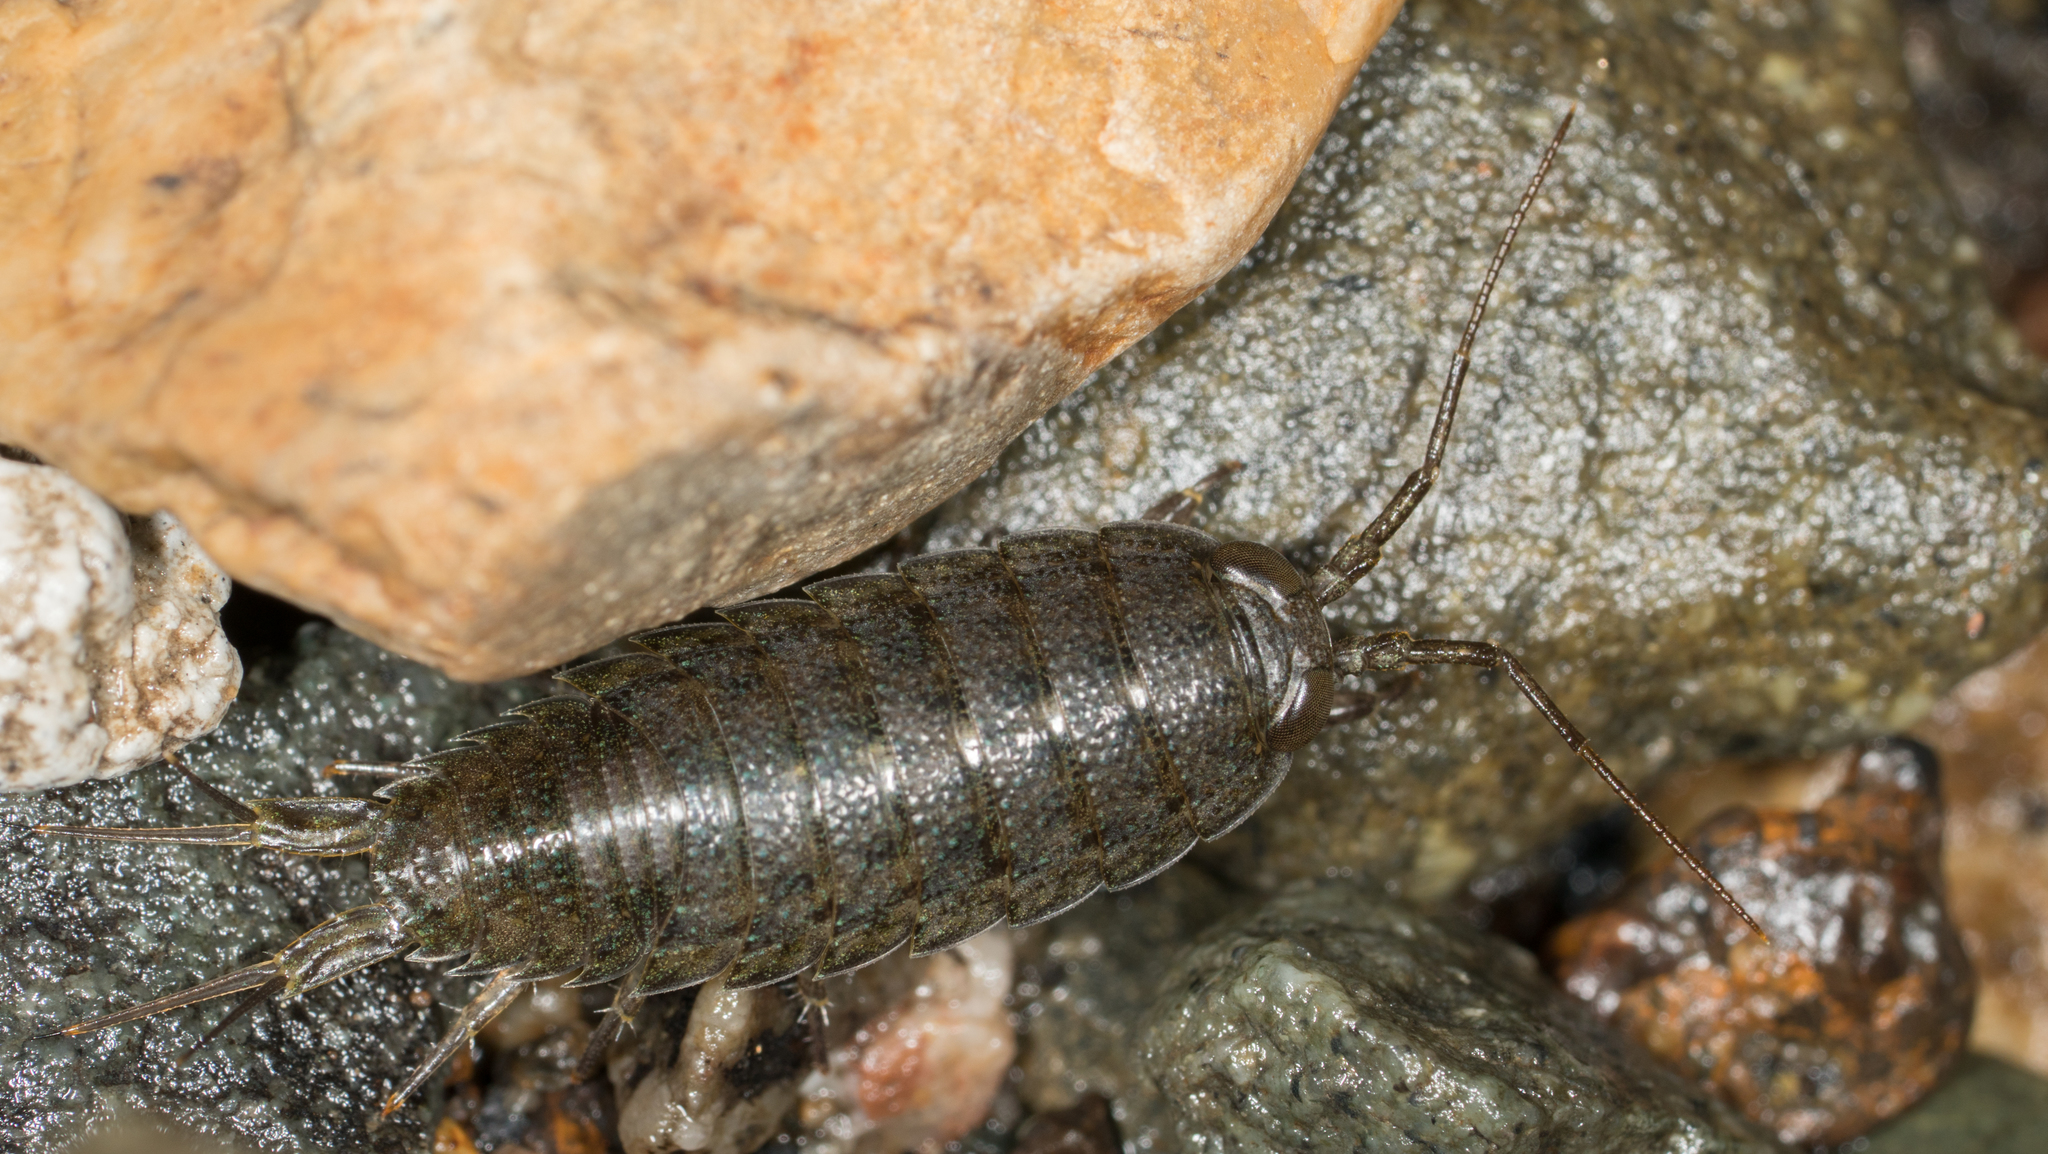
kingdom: Animalia
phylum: Arthropoda
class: Malacostraca
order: Isopoda
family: Ligiidae
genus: Ligia
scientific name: Ligia occidentalis
